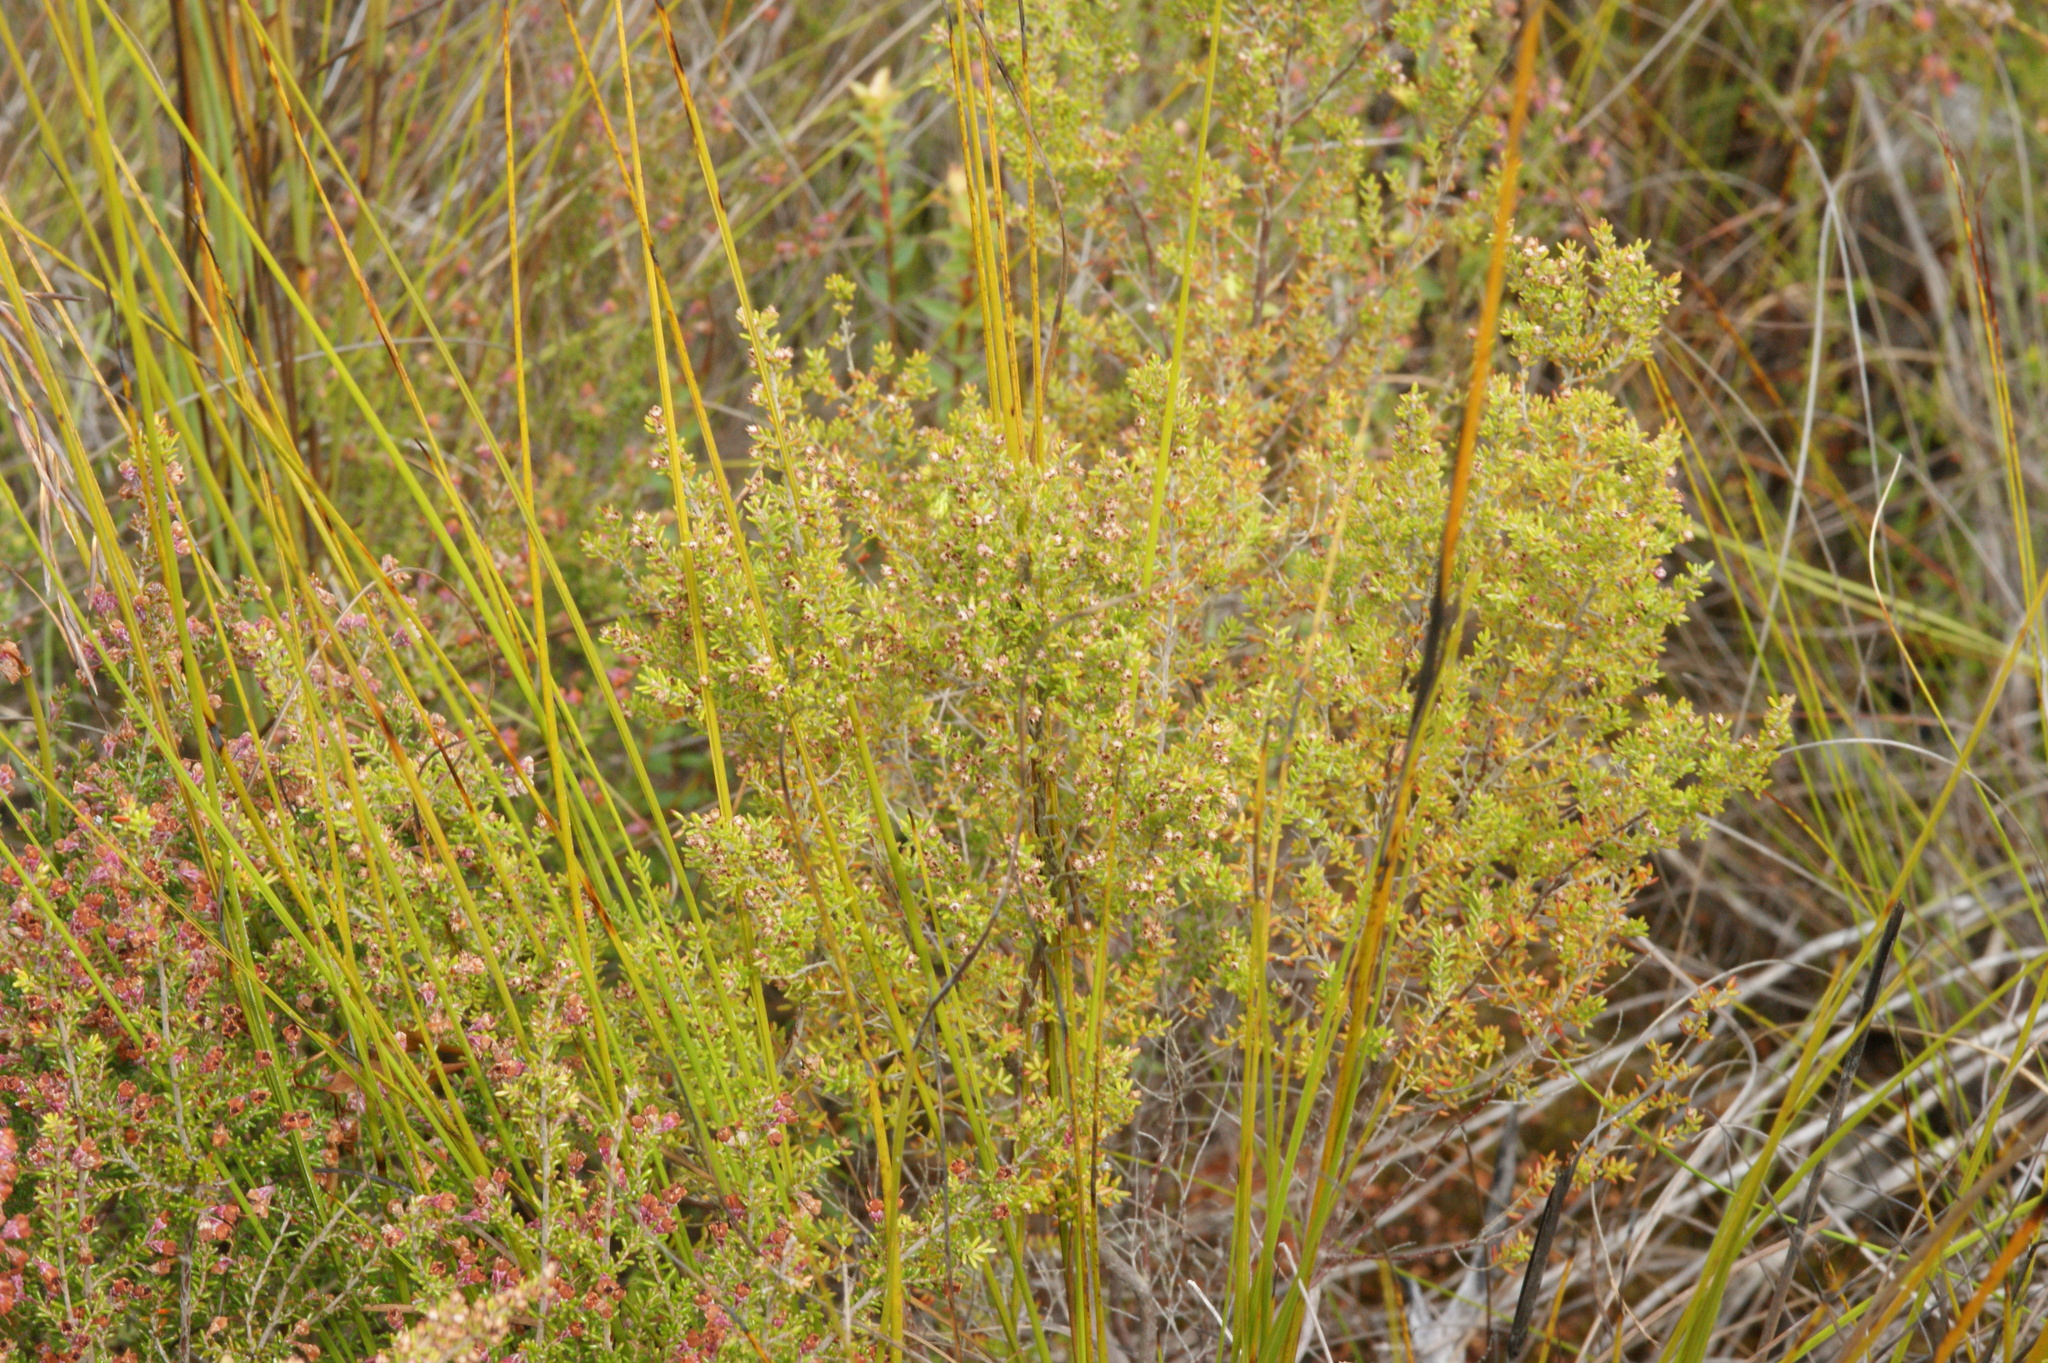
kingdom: Plantae
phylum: Tracheophyta
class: Magnoliopsida
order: Ericales
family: Ericaceae
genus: Erica
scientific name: Erica hispidula
